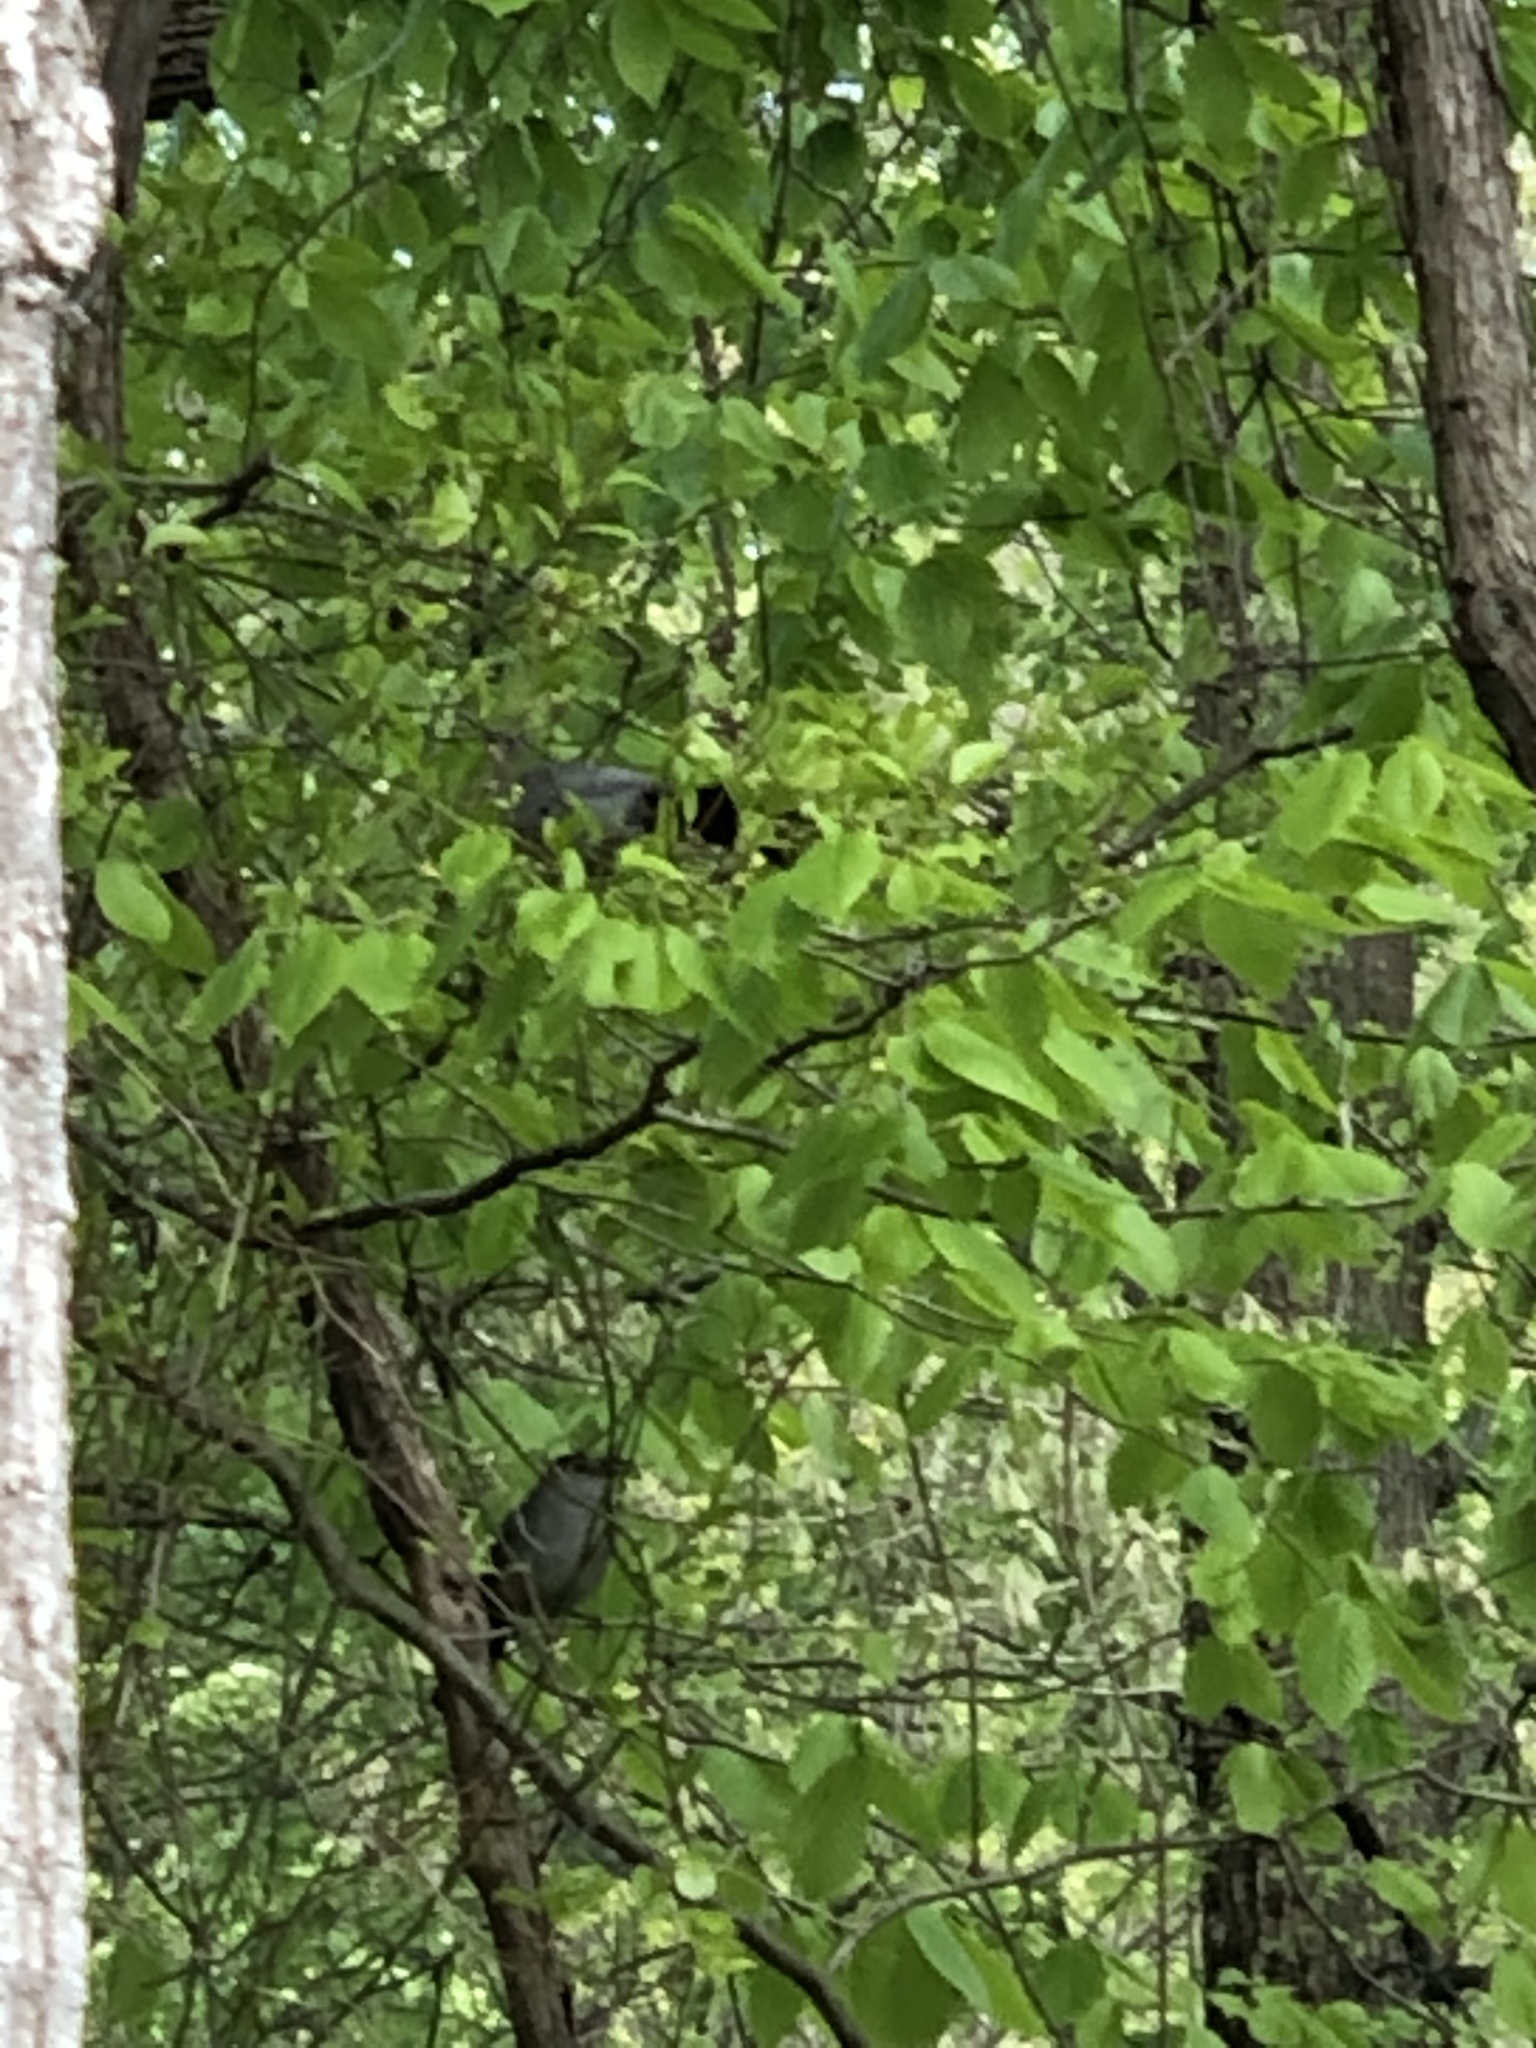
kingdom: Animalia
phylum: Chordata
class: Aves
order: Passeriformes
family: Mimidae
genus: Dumetella
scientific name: Dumetella carolinensis
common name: Gray catbird
